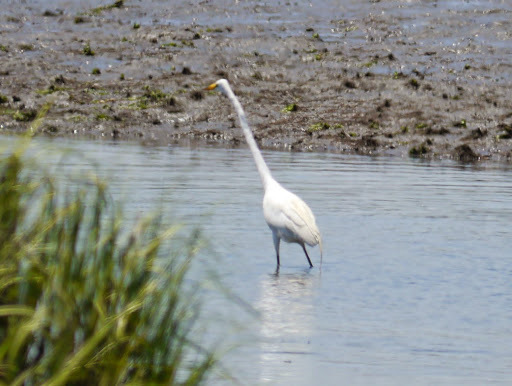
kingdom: Animalia
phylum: Chordata
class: Aves
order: Pelecaniformes
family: Ardeidae
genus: Ardea
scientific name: Ardea alba
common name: Great egret
